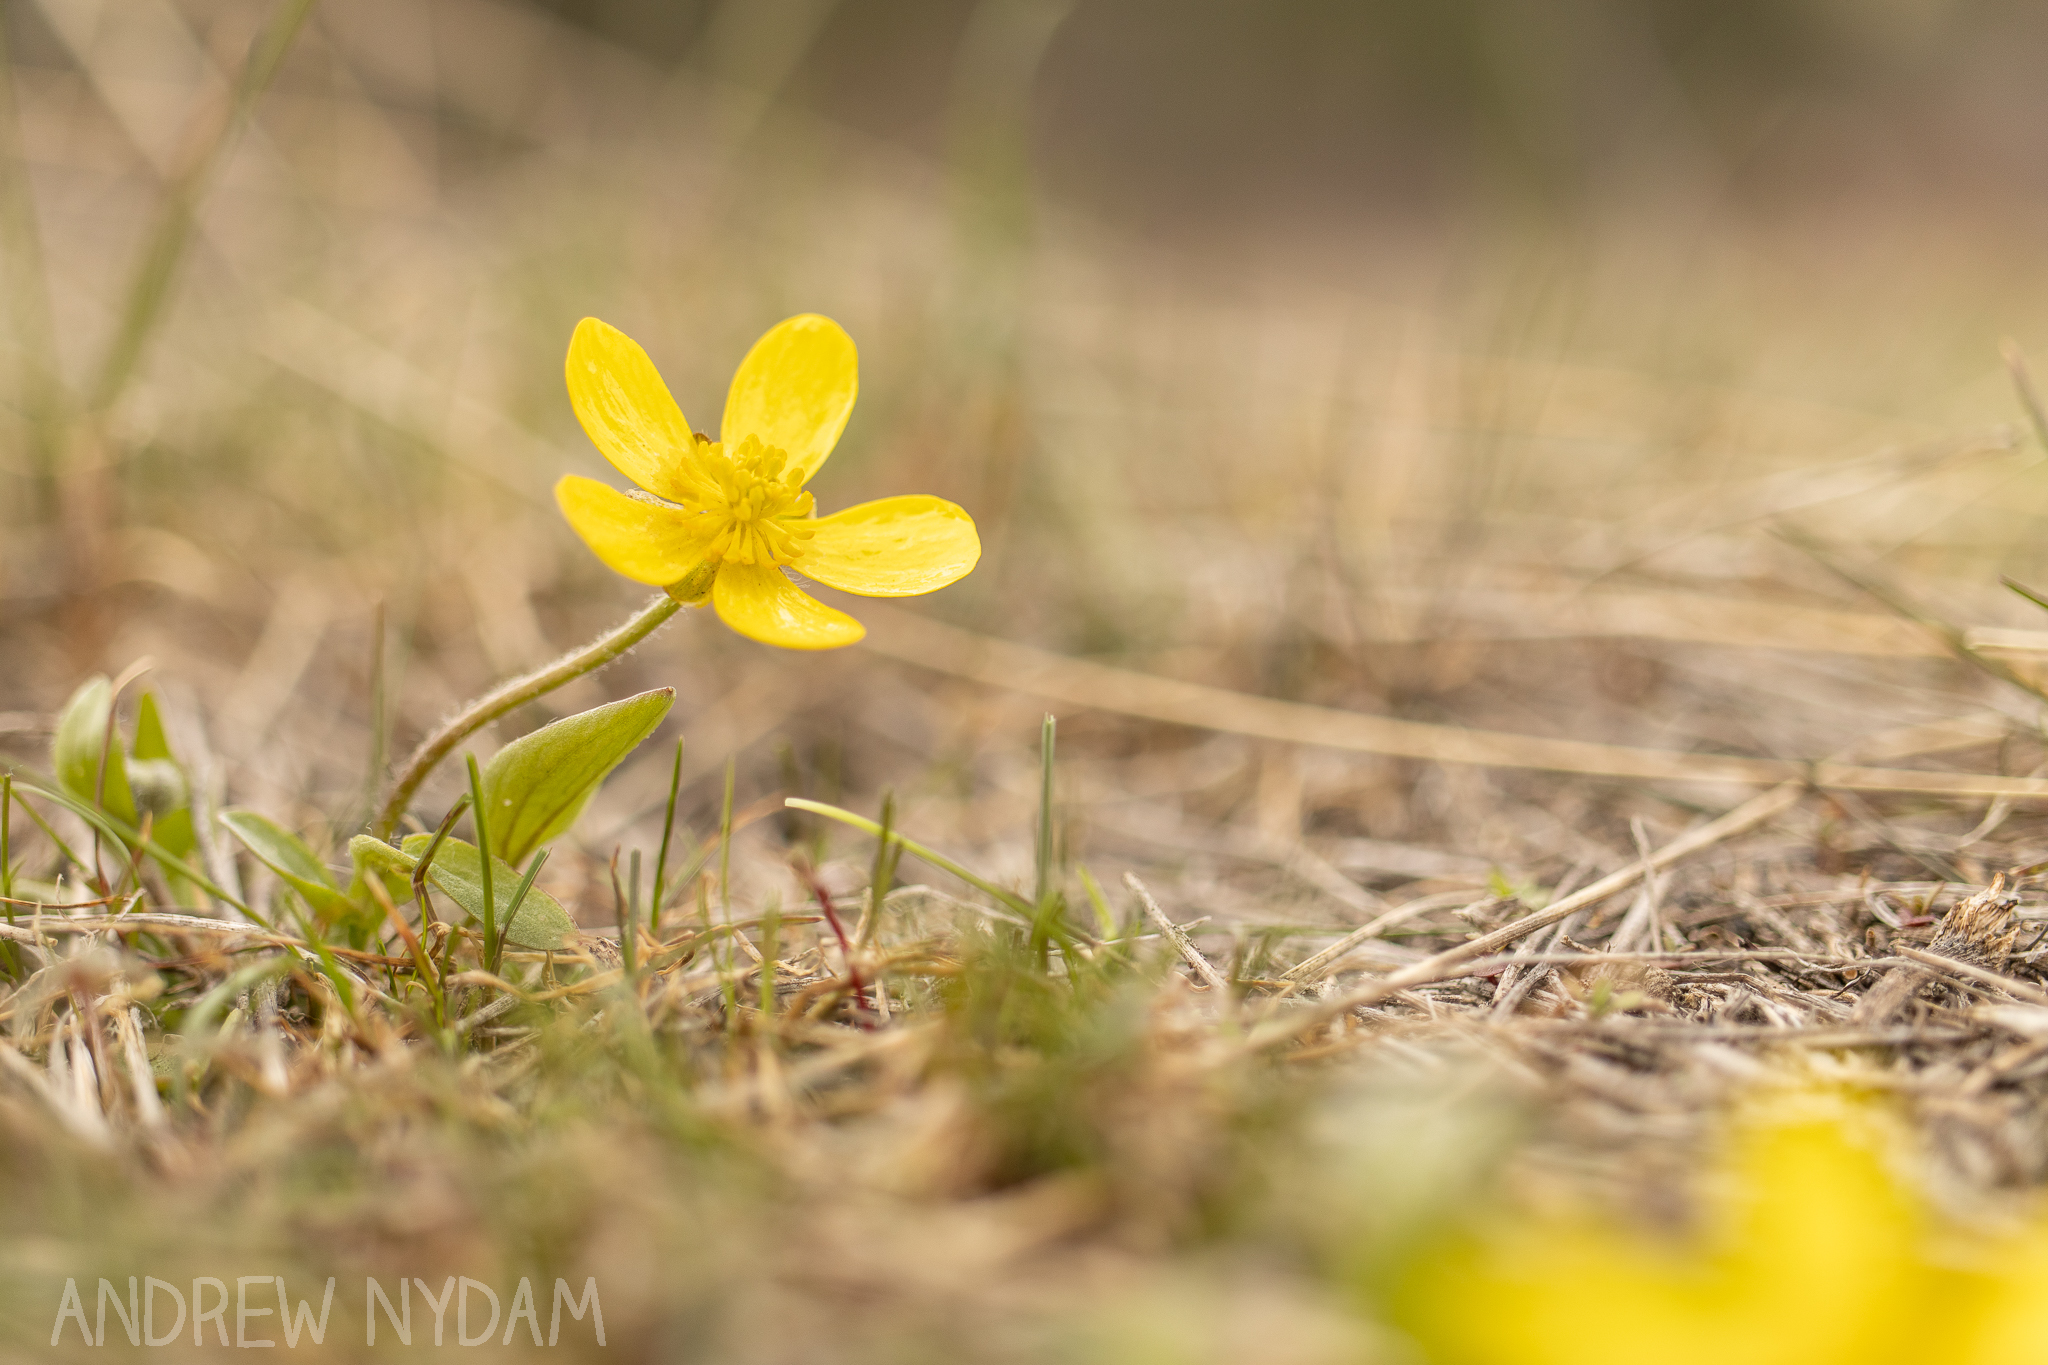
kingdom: Plantae
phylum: Tracheophyta
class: Magnoliopsida
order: Ranunculales
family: Ranunculaceae
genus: Ranunculus
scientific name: Ranunculus glaberrimus
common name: Sagebrush buttercup
